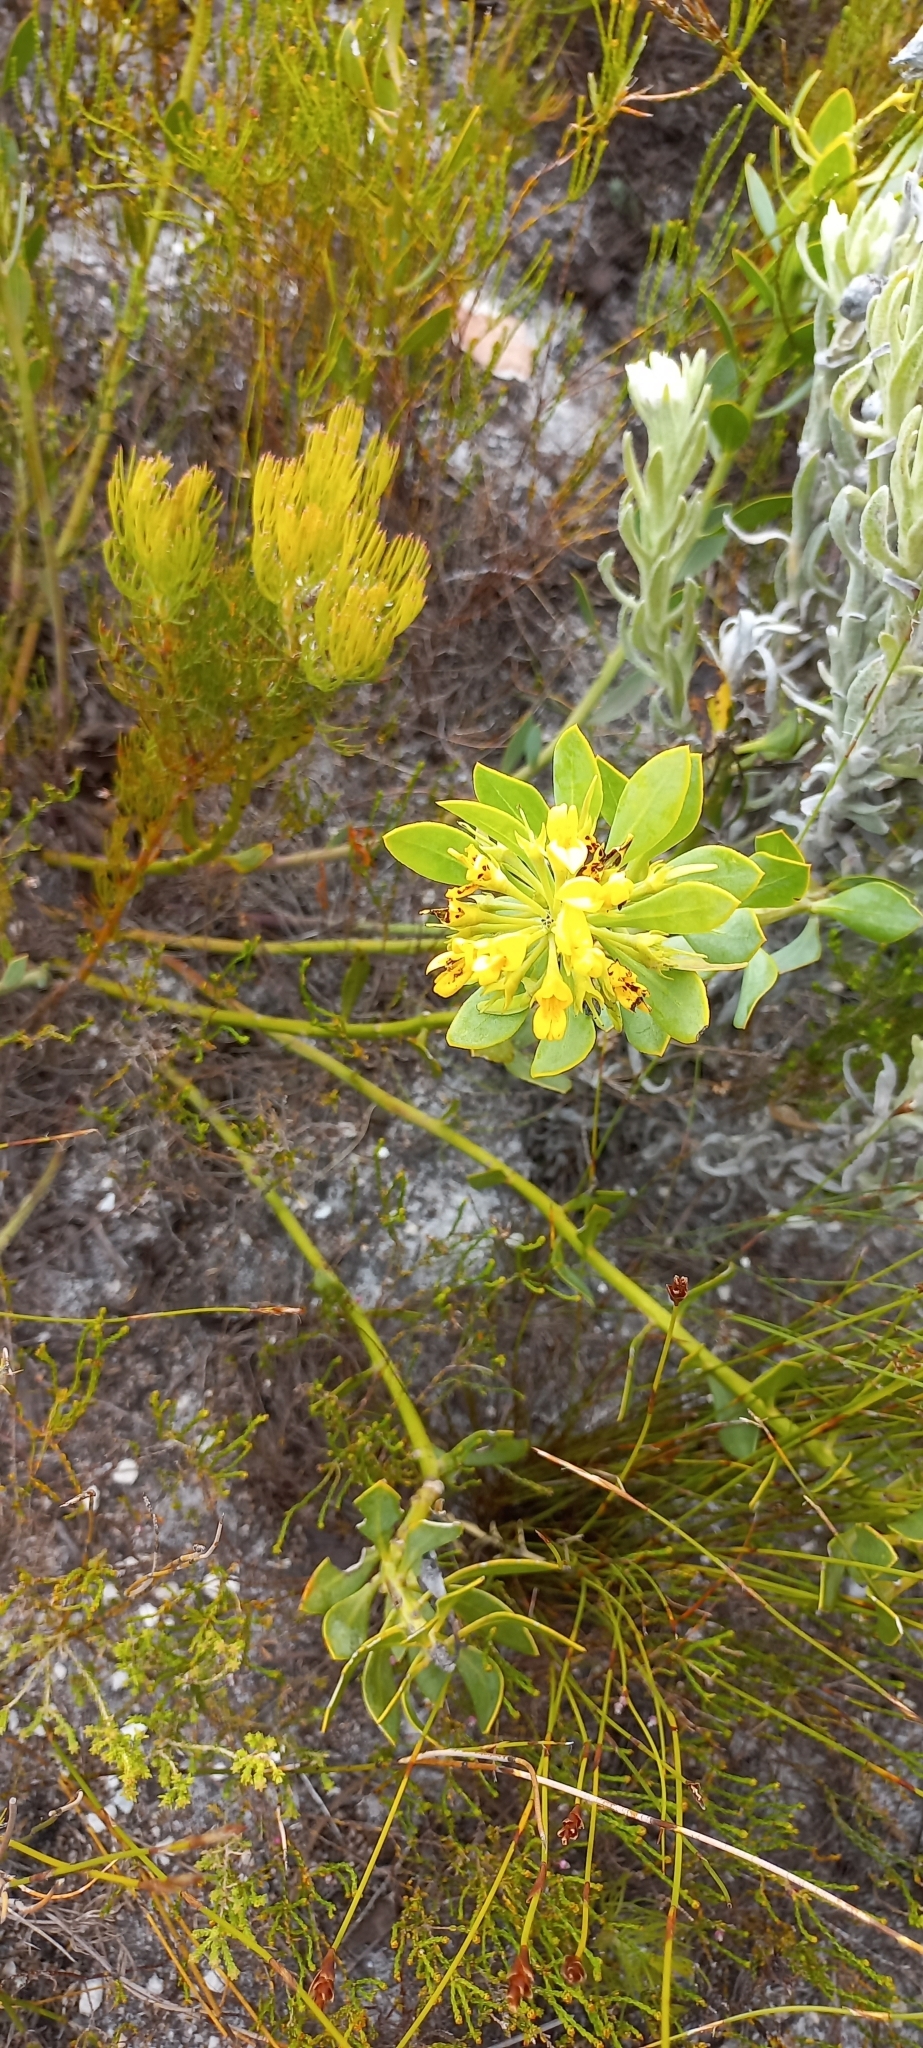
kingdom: Plantae
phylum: Tracheophyta
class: Magnoliopsida
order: Fabales
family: Fabaceae
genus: Rafnia
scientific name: Rafnia capensis
